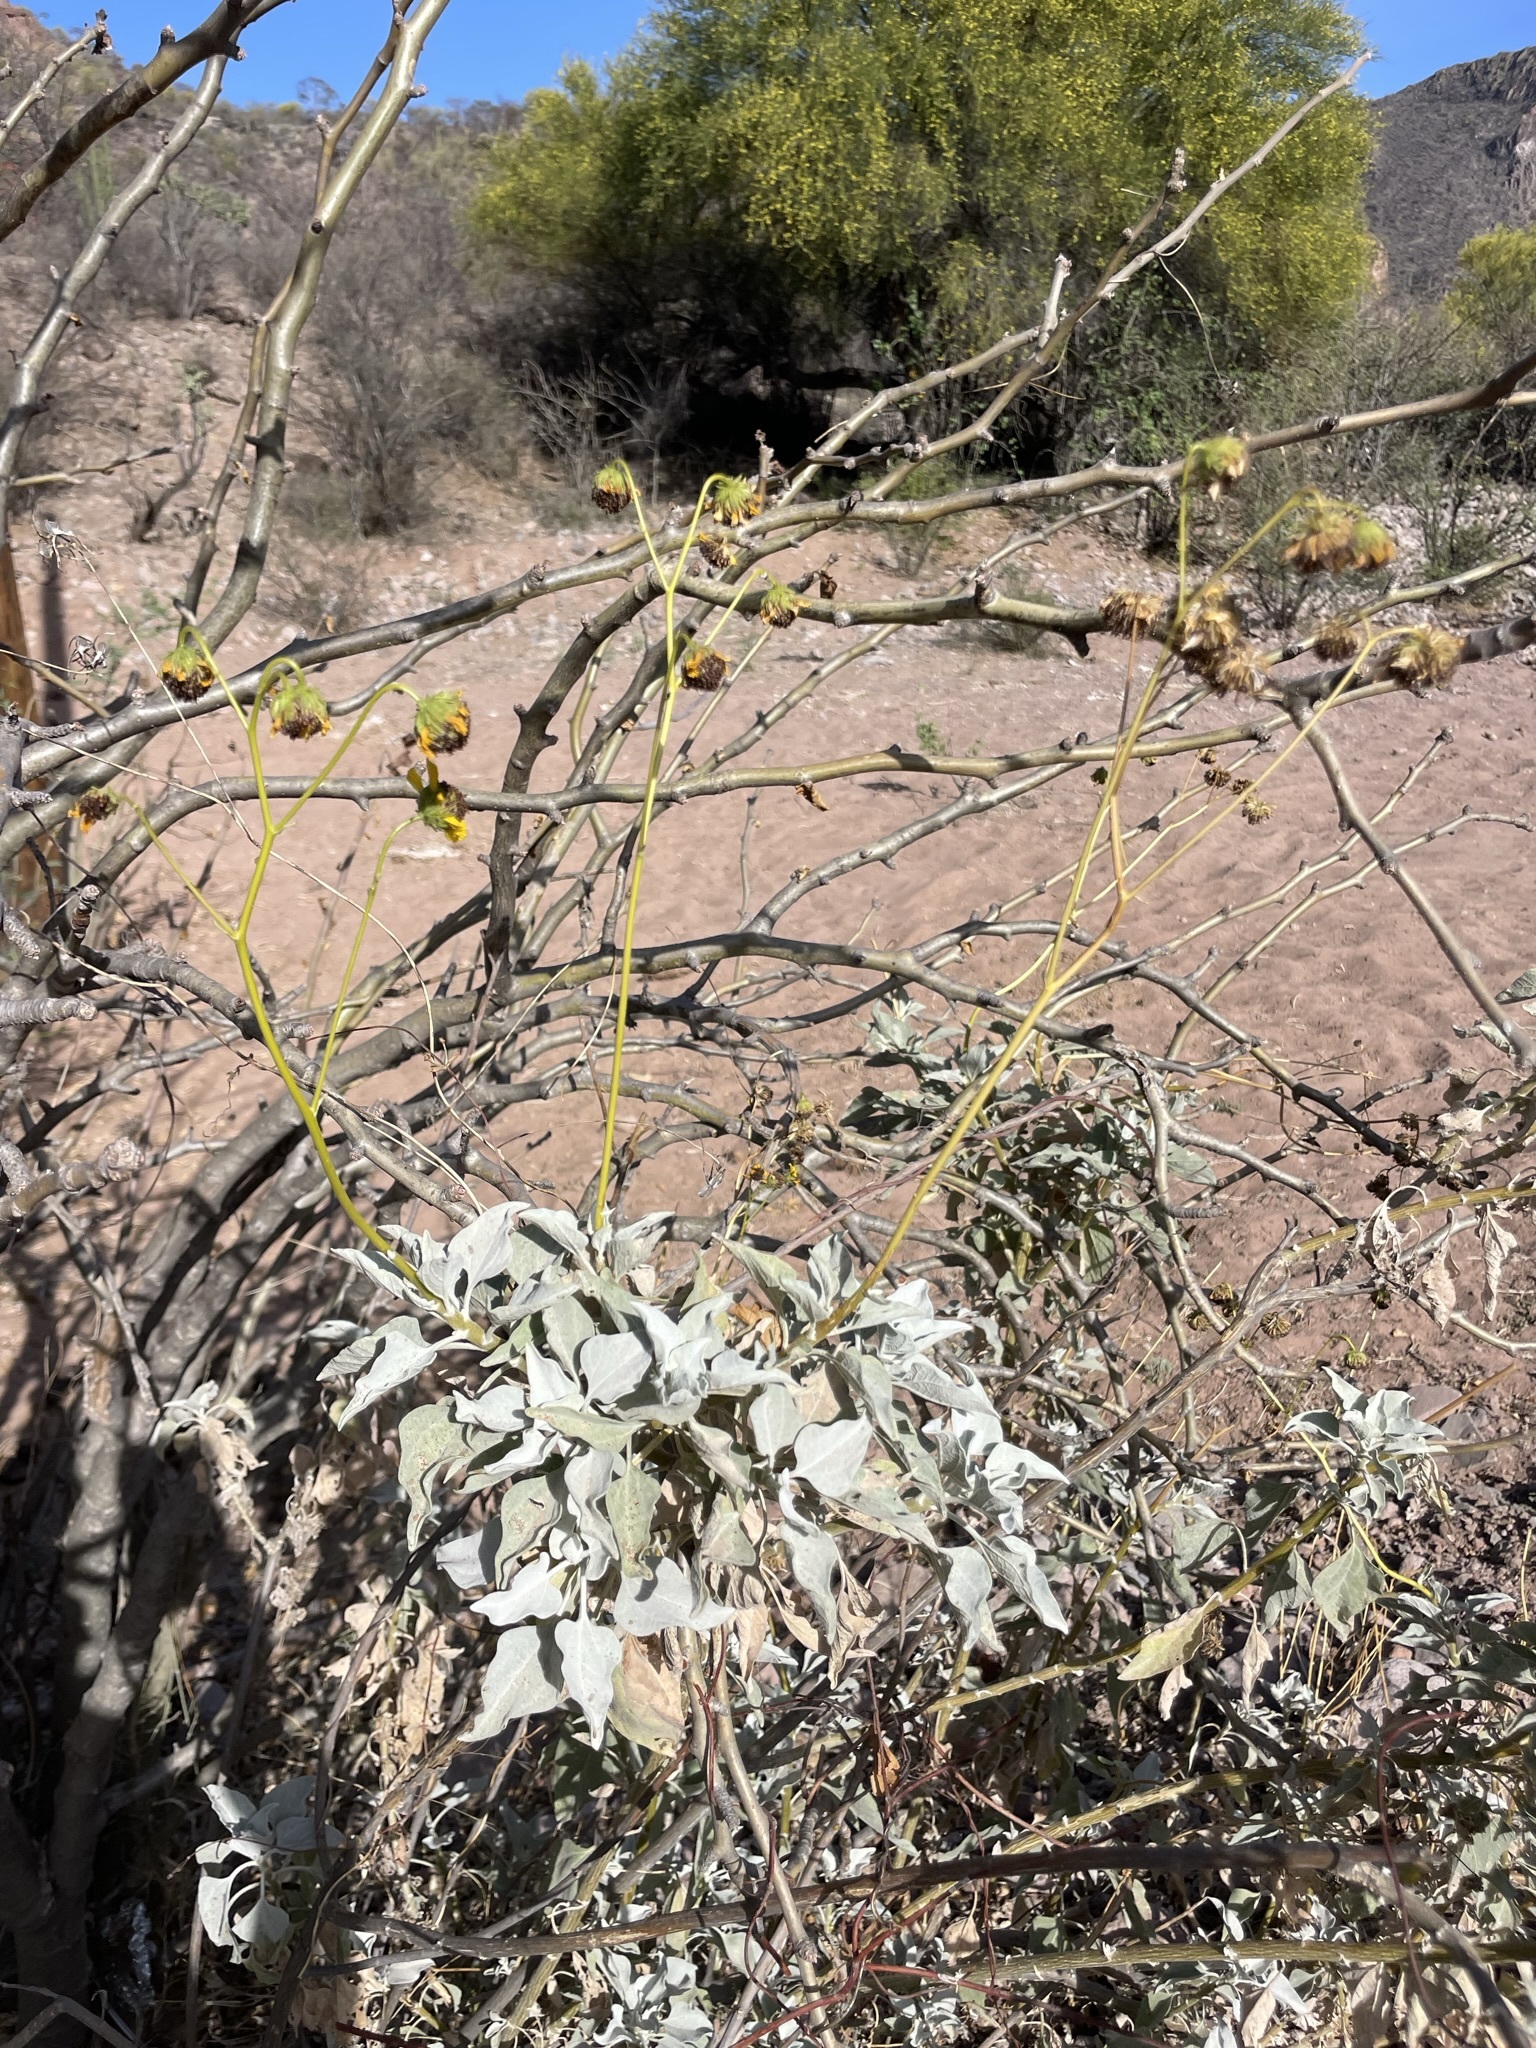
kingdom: Plantae
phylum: Tracheophyta
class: Magnoliopsida
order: Asterales
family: Asteraceae
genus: Encelia
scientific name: Encelia farinosa
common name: Brittlebush
